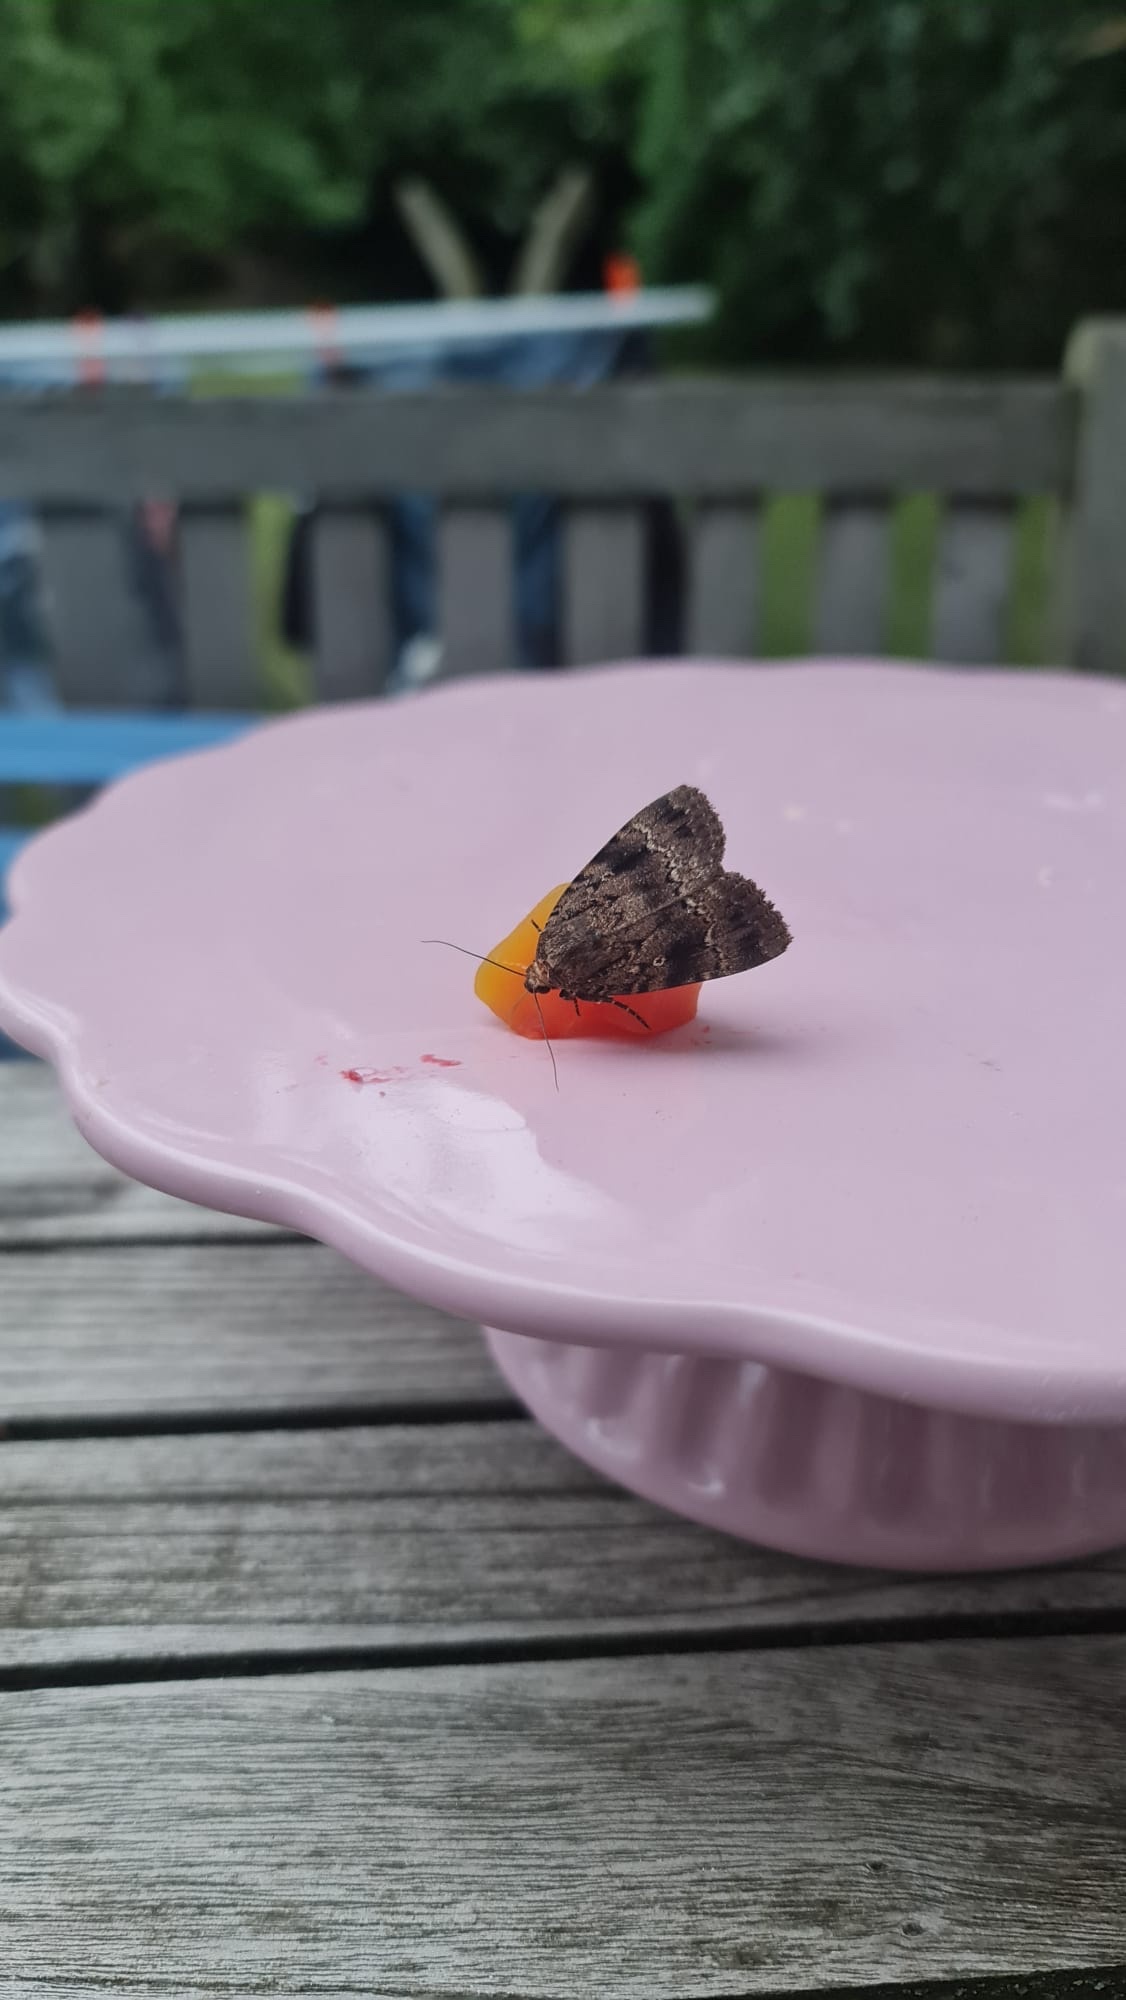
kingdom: Animalia
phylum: Arthropoda
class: Insecta
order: Lepidoptera
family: Noctuidae
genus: Amphipyra
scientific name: Amphipyra pyramidea
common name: Copper underwing
